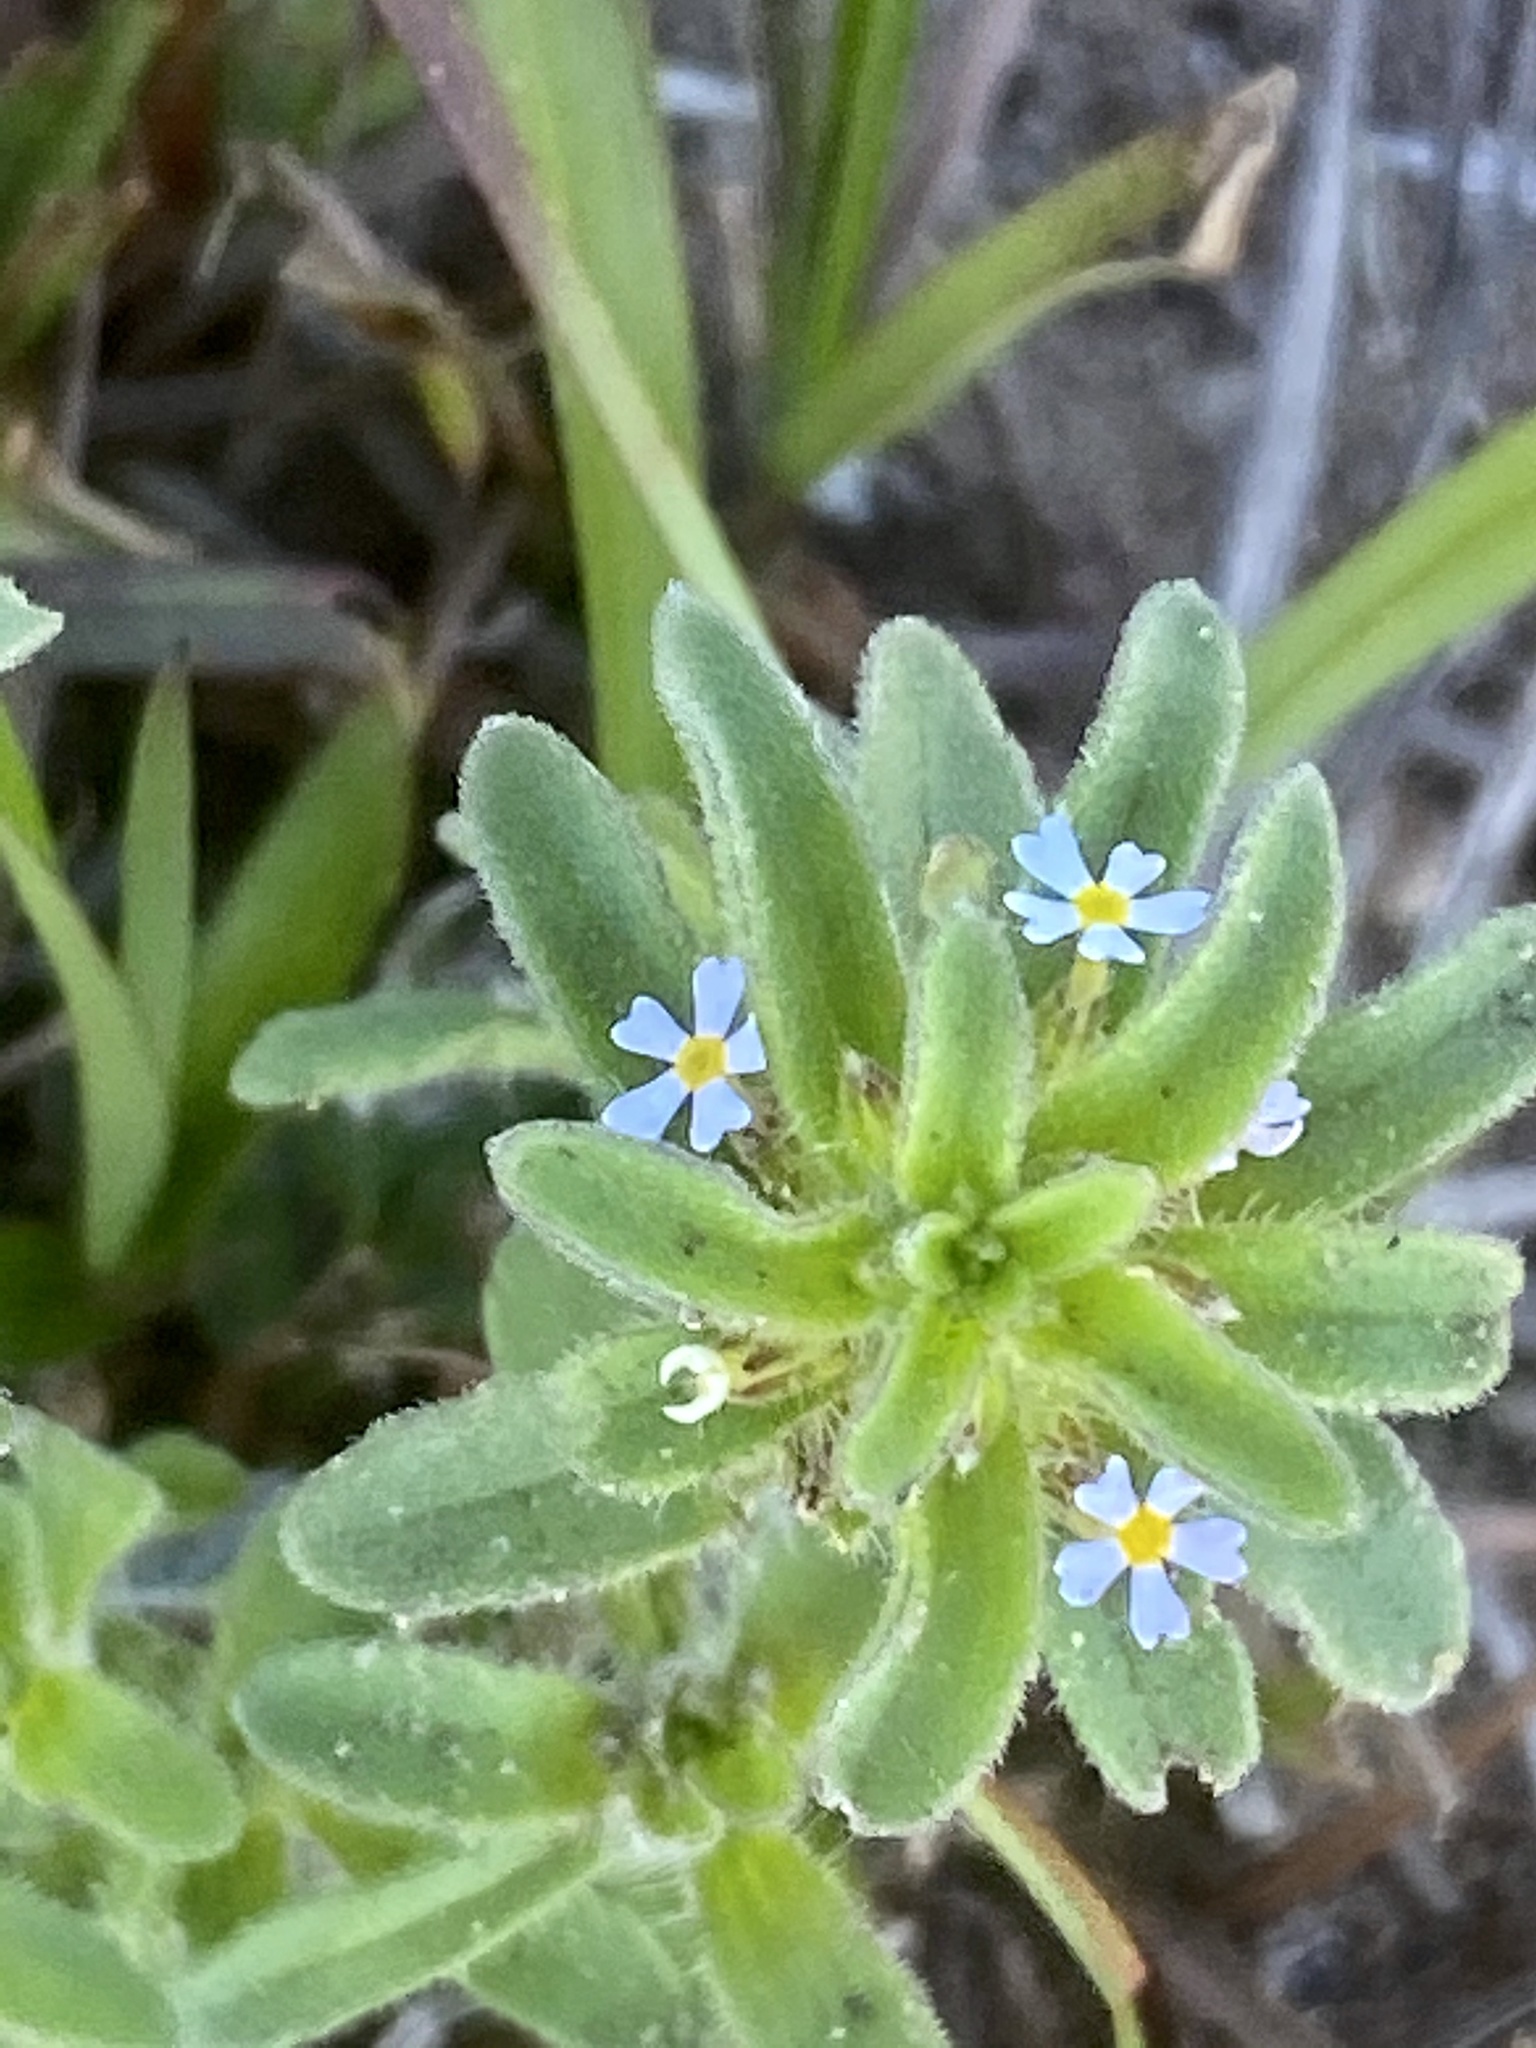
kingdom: Plantae
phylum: Tracheophyta
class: Magnoliopsida
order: Lamiales
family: Scrophulariaceae
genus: Zaluzianskya
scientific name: Zaluzianskya gracilis
